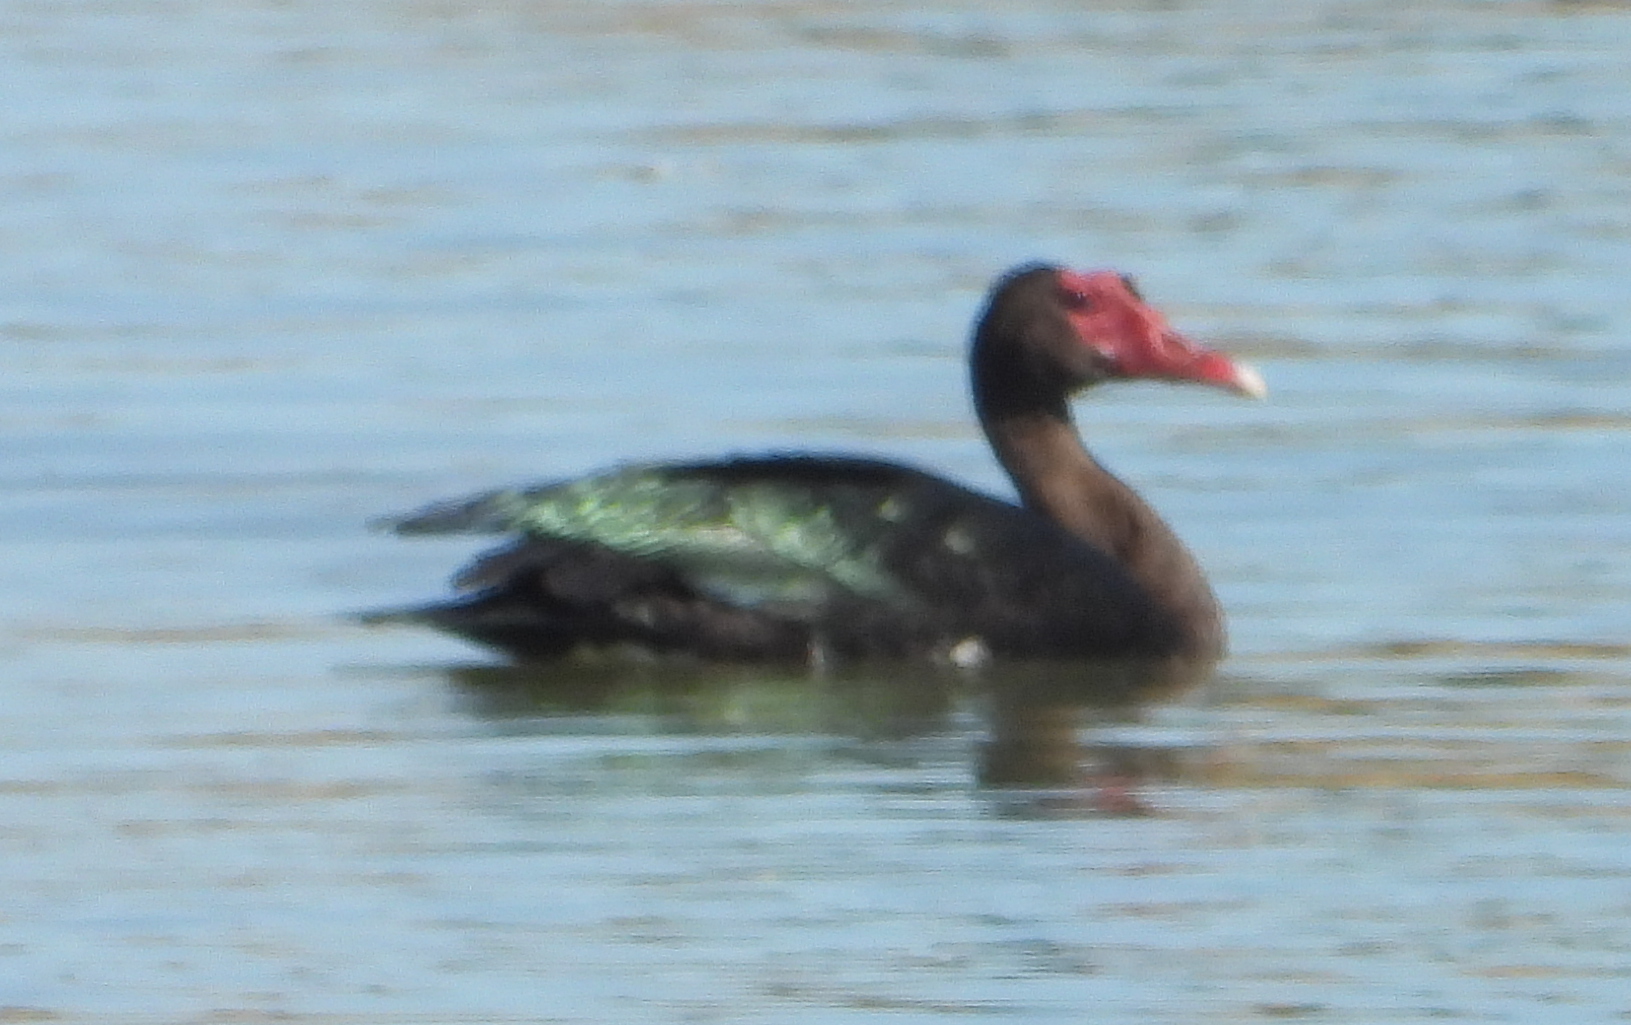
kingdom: Animalia
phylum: Chordata
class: Aves
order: Anseriformes
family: Anatidae
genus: Plectropterus
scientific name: Plectropterus gambensis
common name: Spur-winged goose
